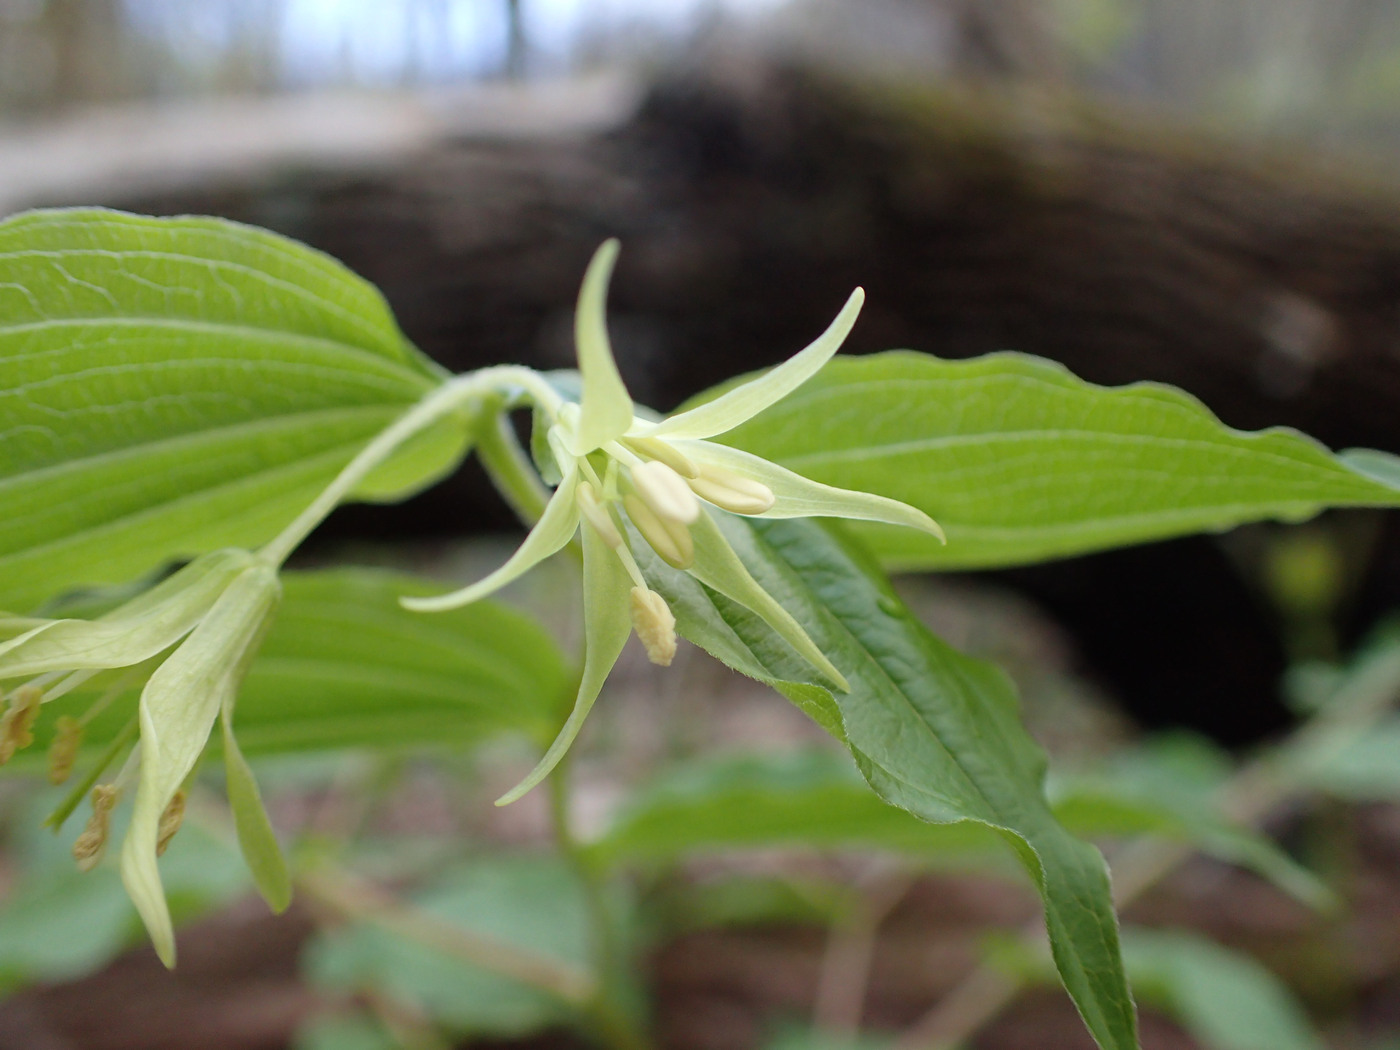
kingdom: Plantae
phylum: Tracheophyta
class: Liliopsida
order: Liliales
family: Liliaceae
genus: Prosartes
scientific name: Prosartes lanuginosa
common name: Hairy mandarin
